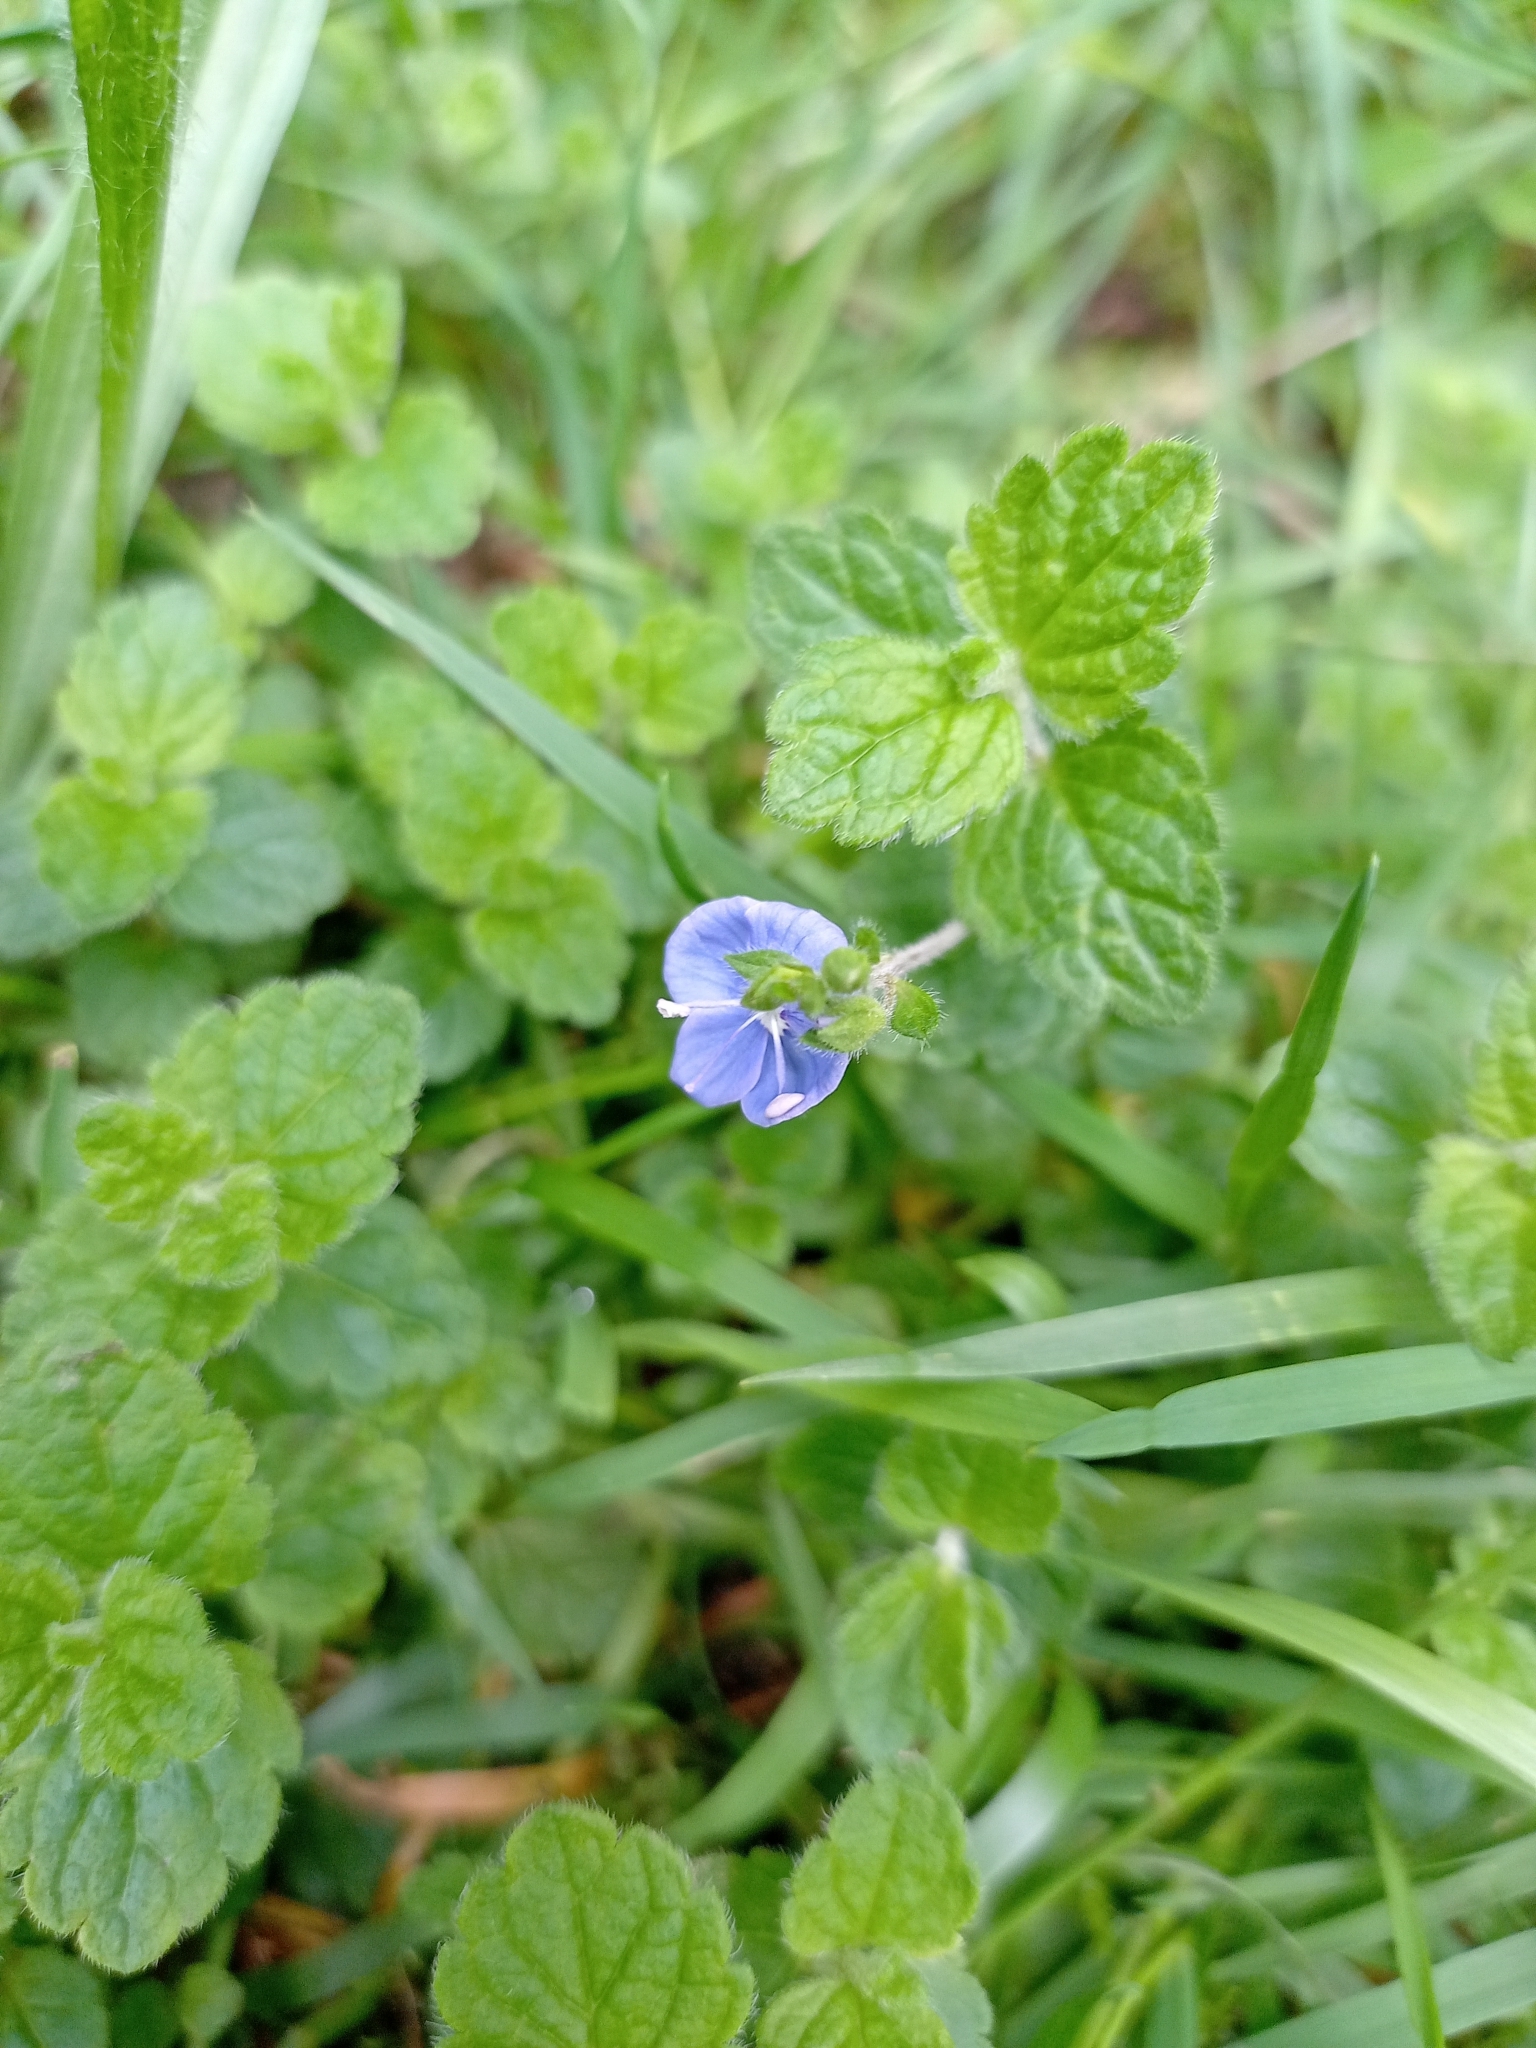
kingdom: Plantae
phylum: Tracheophyta
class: Magnoliopsida
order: Lamiales
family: Plantaginaceae
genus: Veronica
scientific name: Veronica chamaedrys
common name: Germander speedwell
